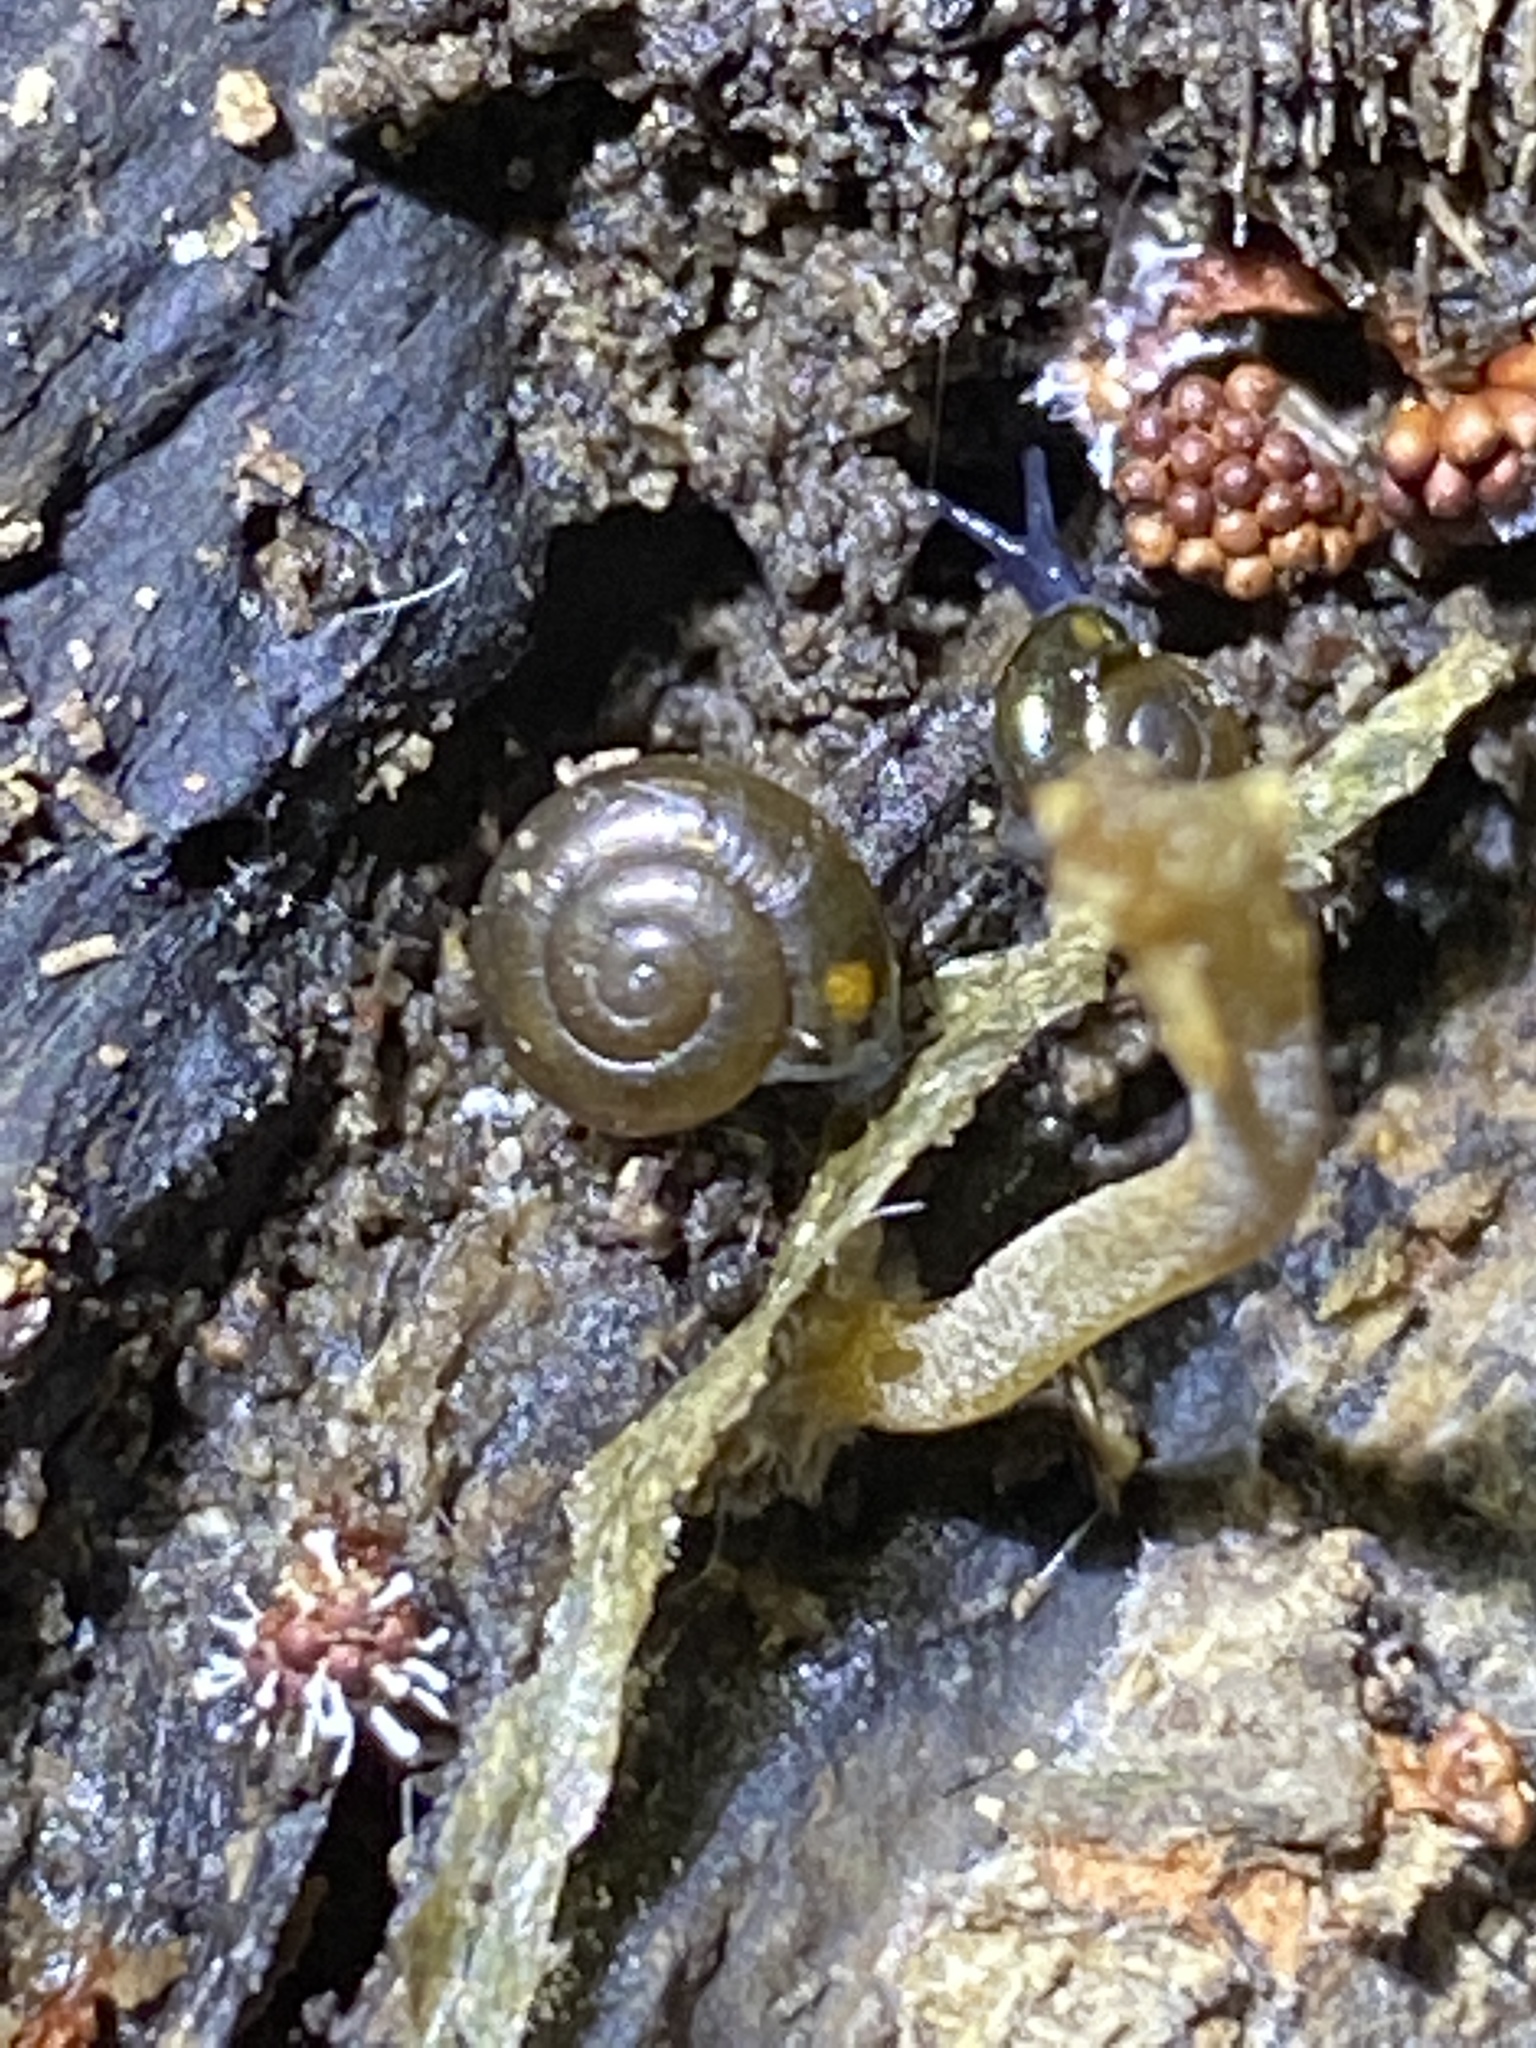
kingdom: Animalia
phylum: Mollusca
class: Gastropoda
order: Stylommatophora
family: Gastrodontidae
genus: Zonitoides
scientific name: Zonitoides nitidus
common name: Shiny glass snail
